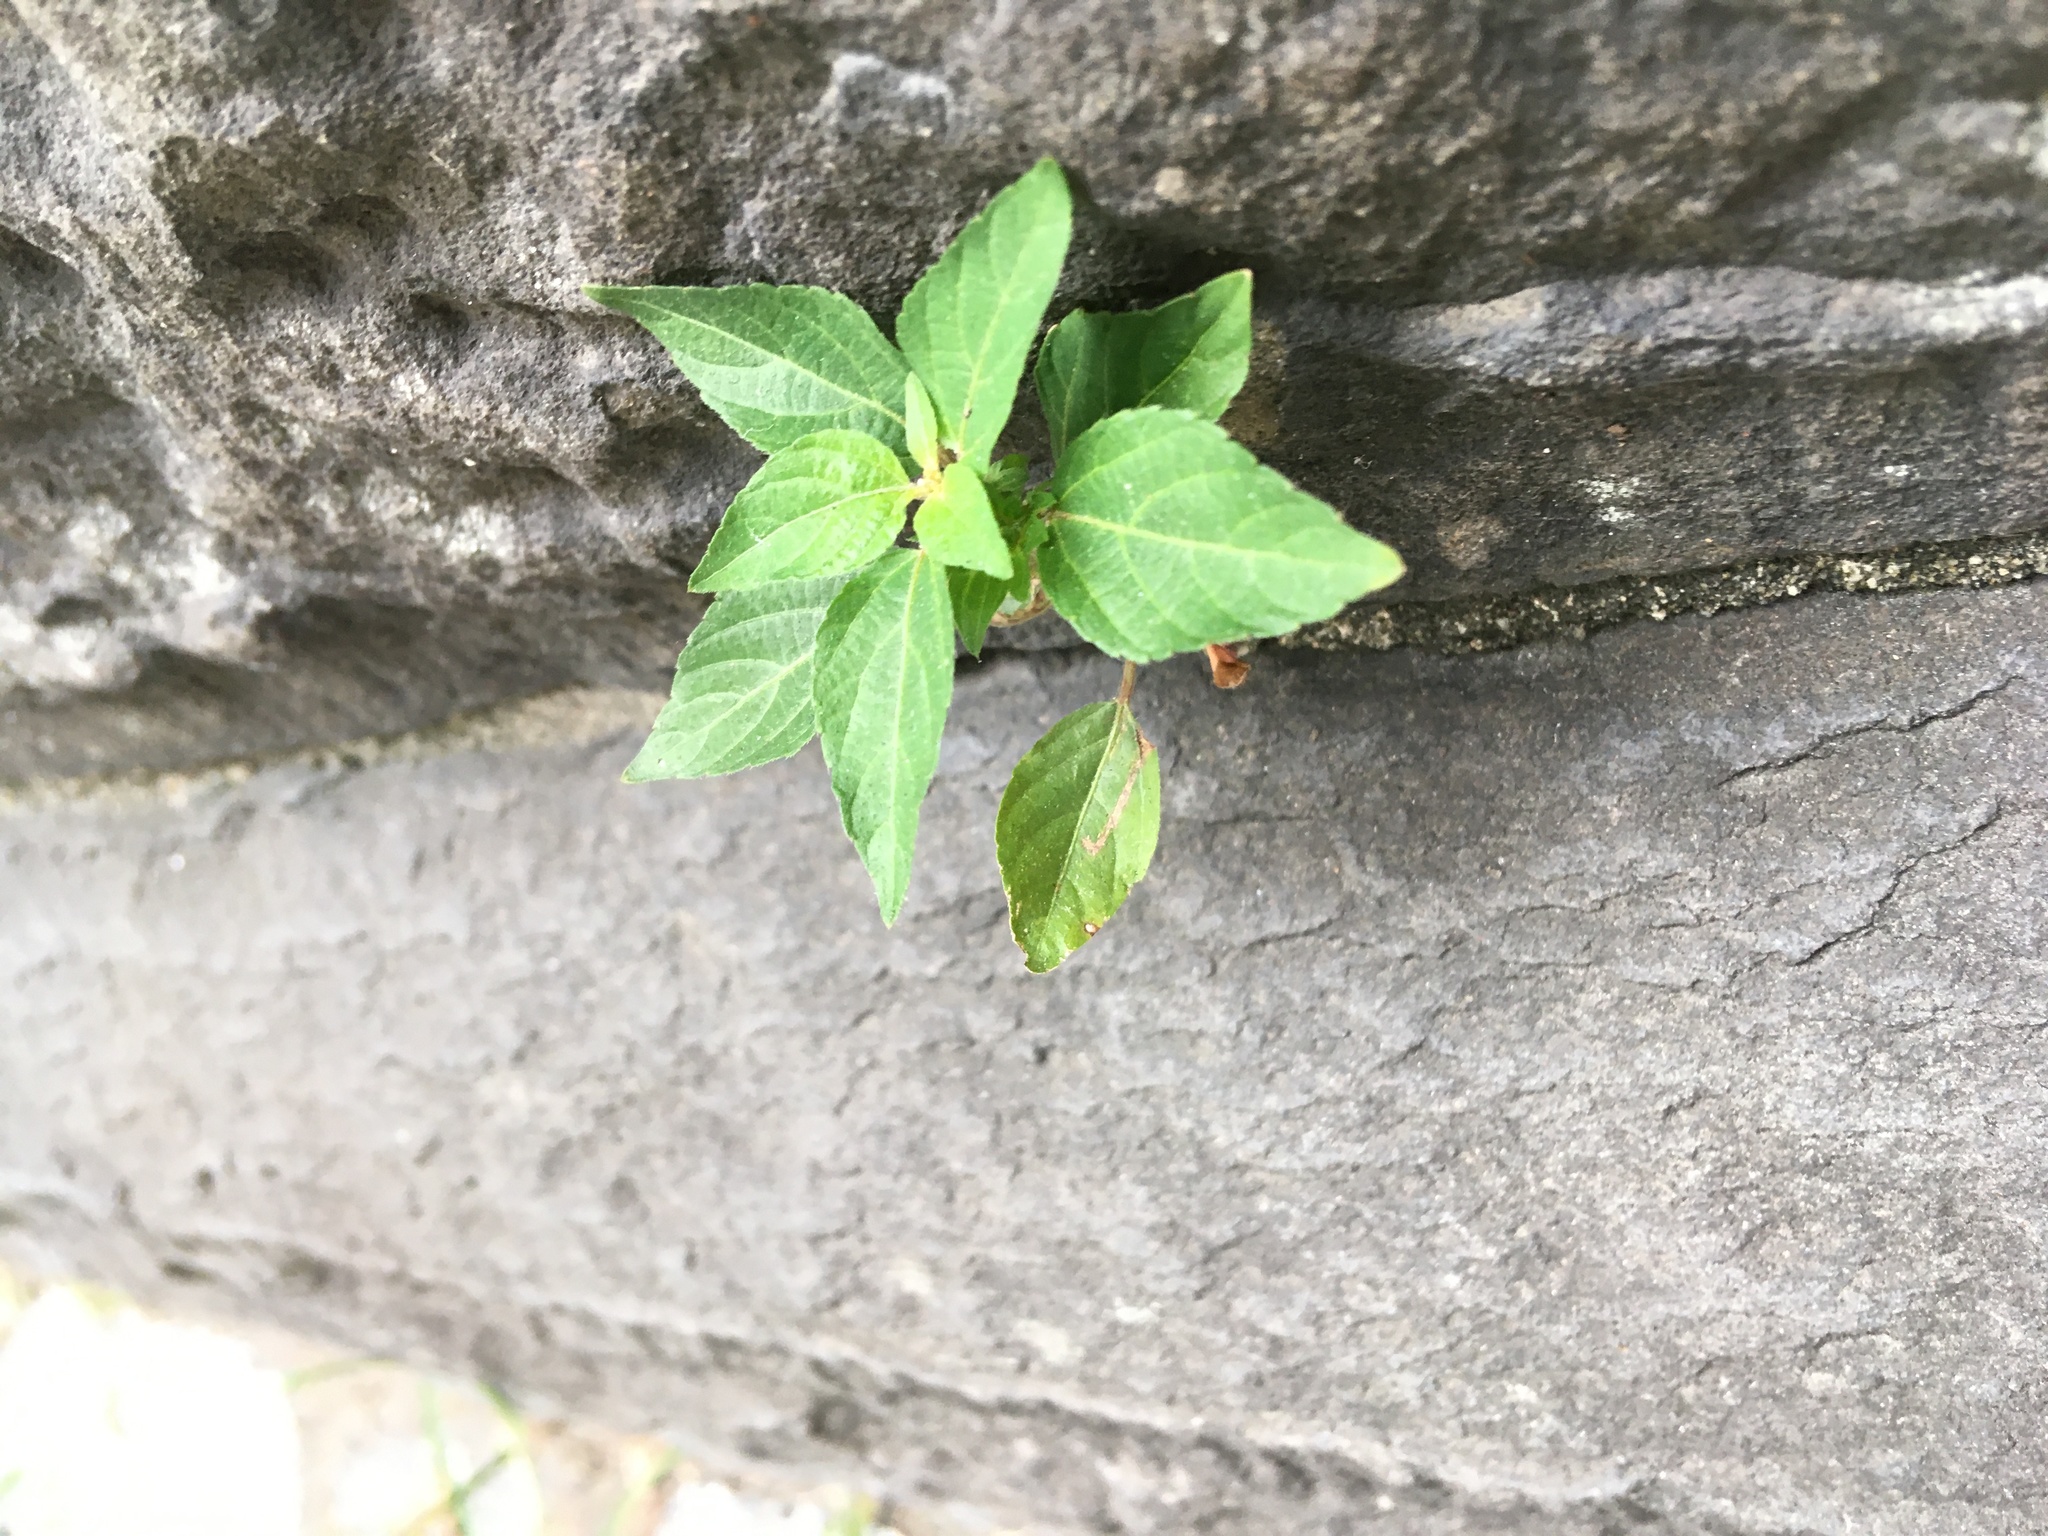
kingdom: Plantae
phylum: Tracheophyta
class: Magnoliopsida
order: Malpighiales
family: Euphorbiaceae
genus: Acalypha
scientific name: Acalypha rhomboidea
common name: Rhombic copperleaf
